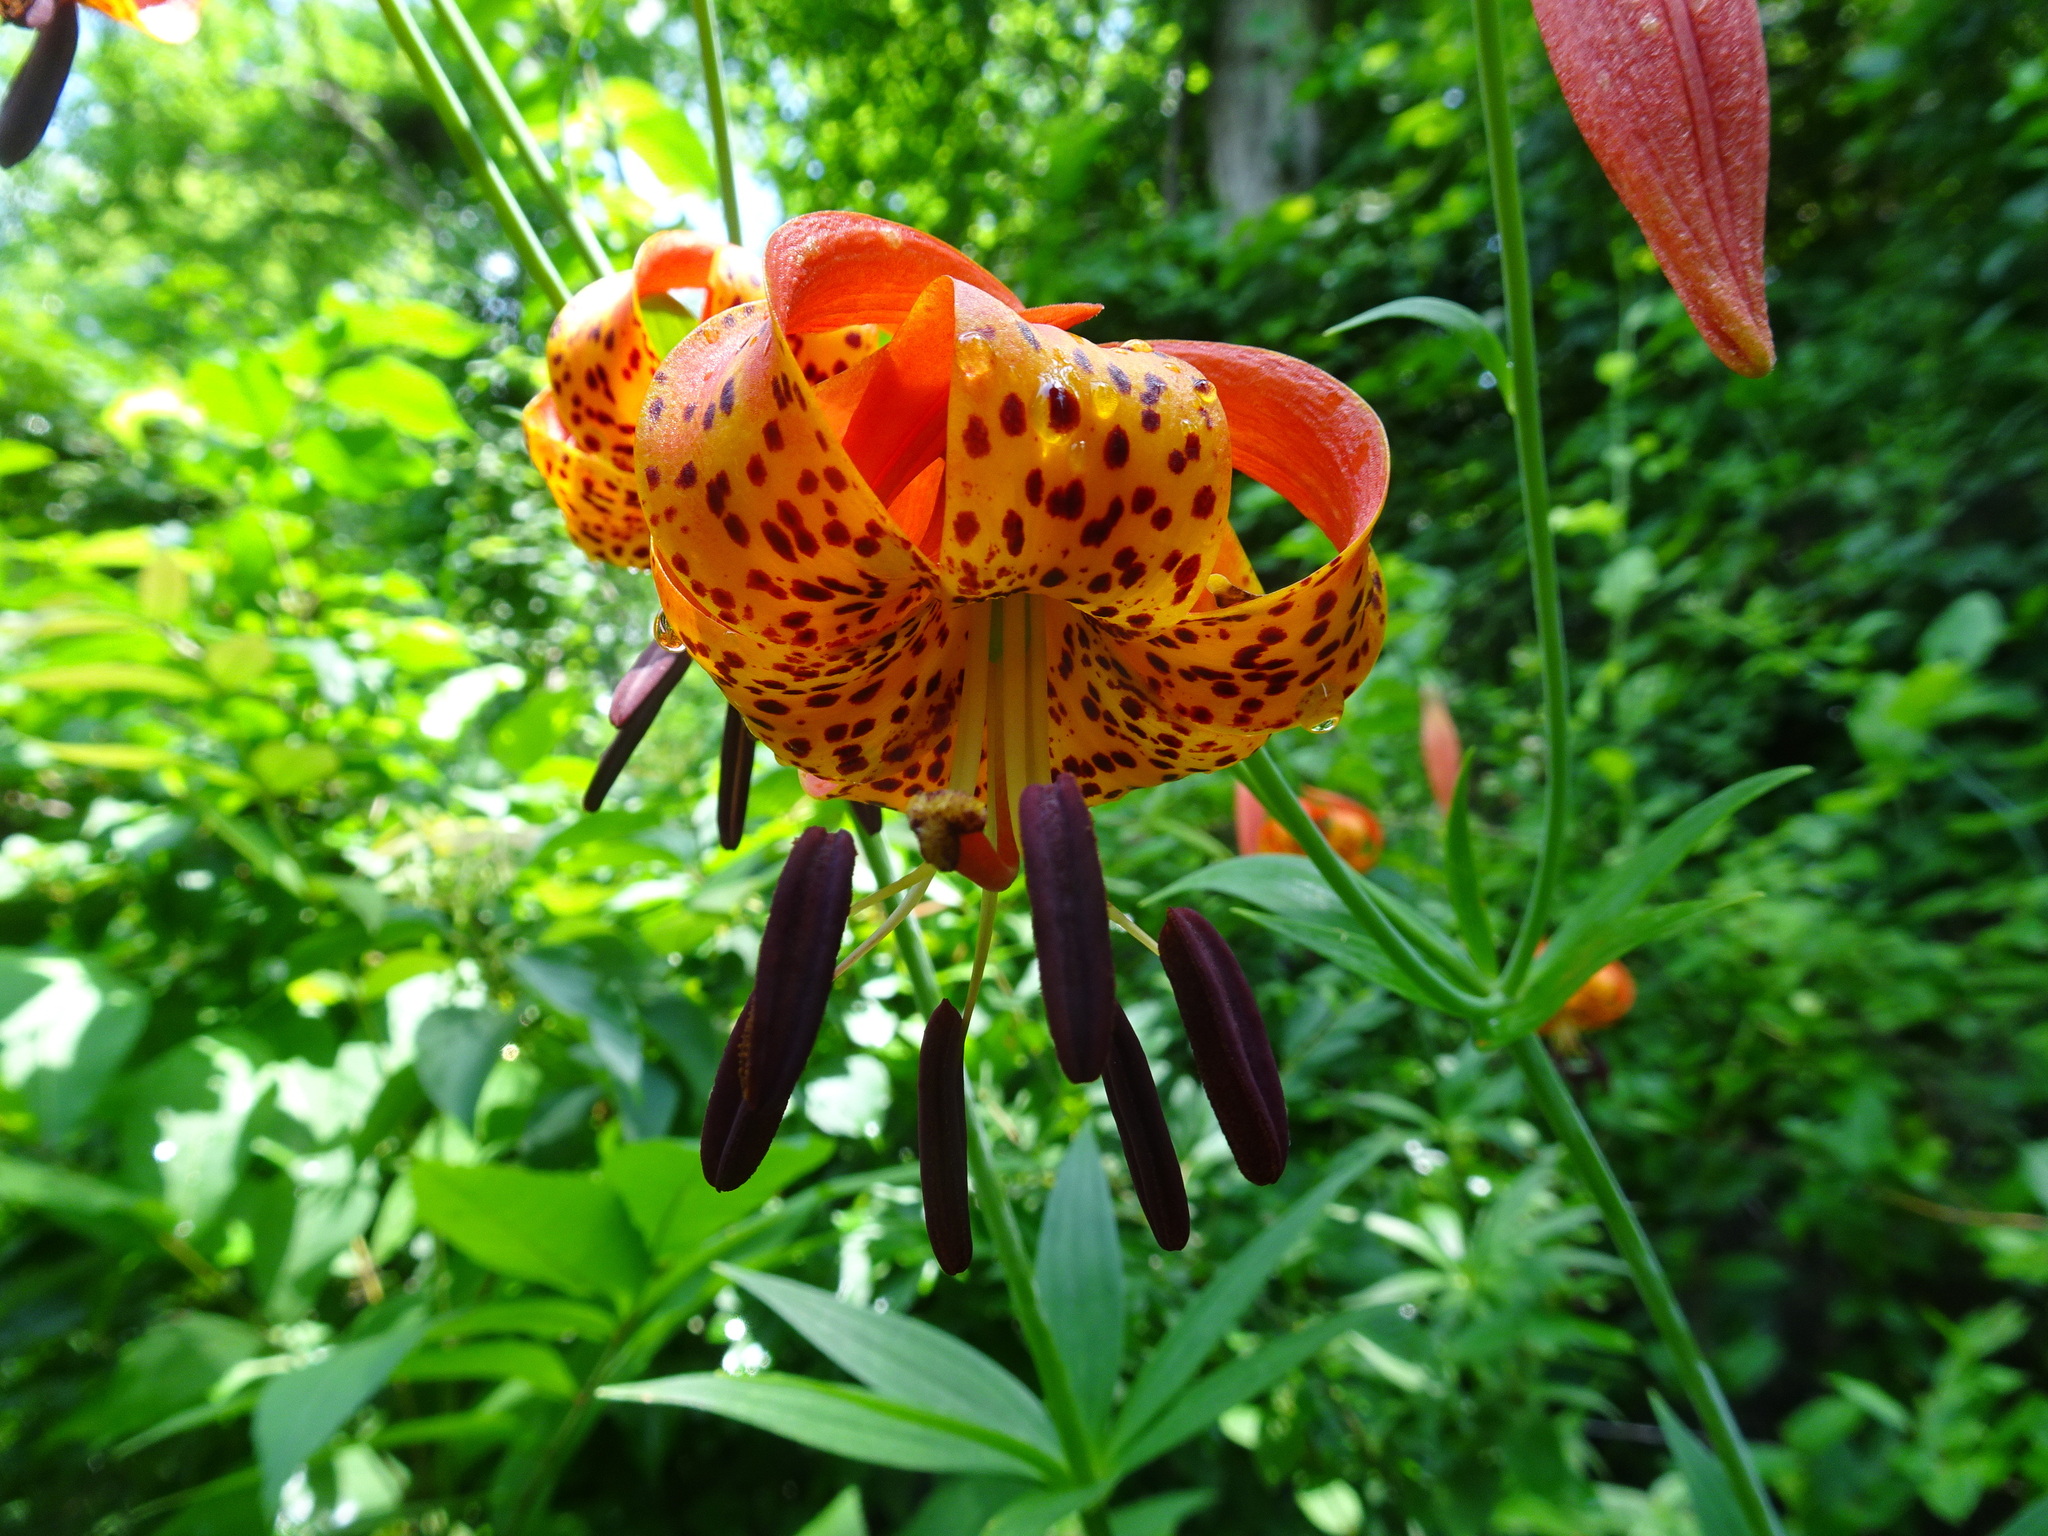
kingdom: Plantae
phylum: Tracheophyta
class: Liliopsida
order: Liliales
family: Liliaceae
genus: Lilium
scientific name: Lilium michiganense
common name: Michigan lily
